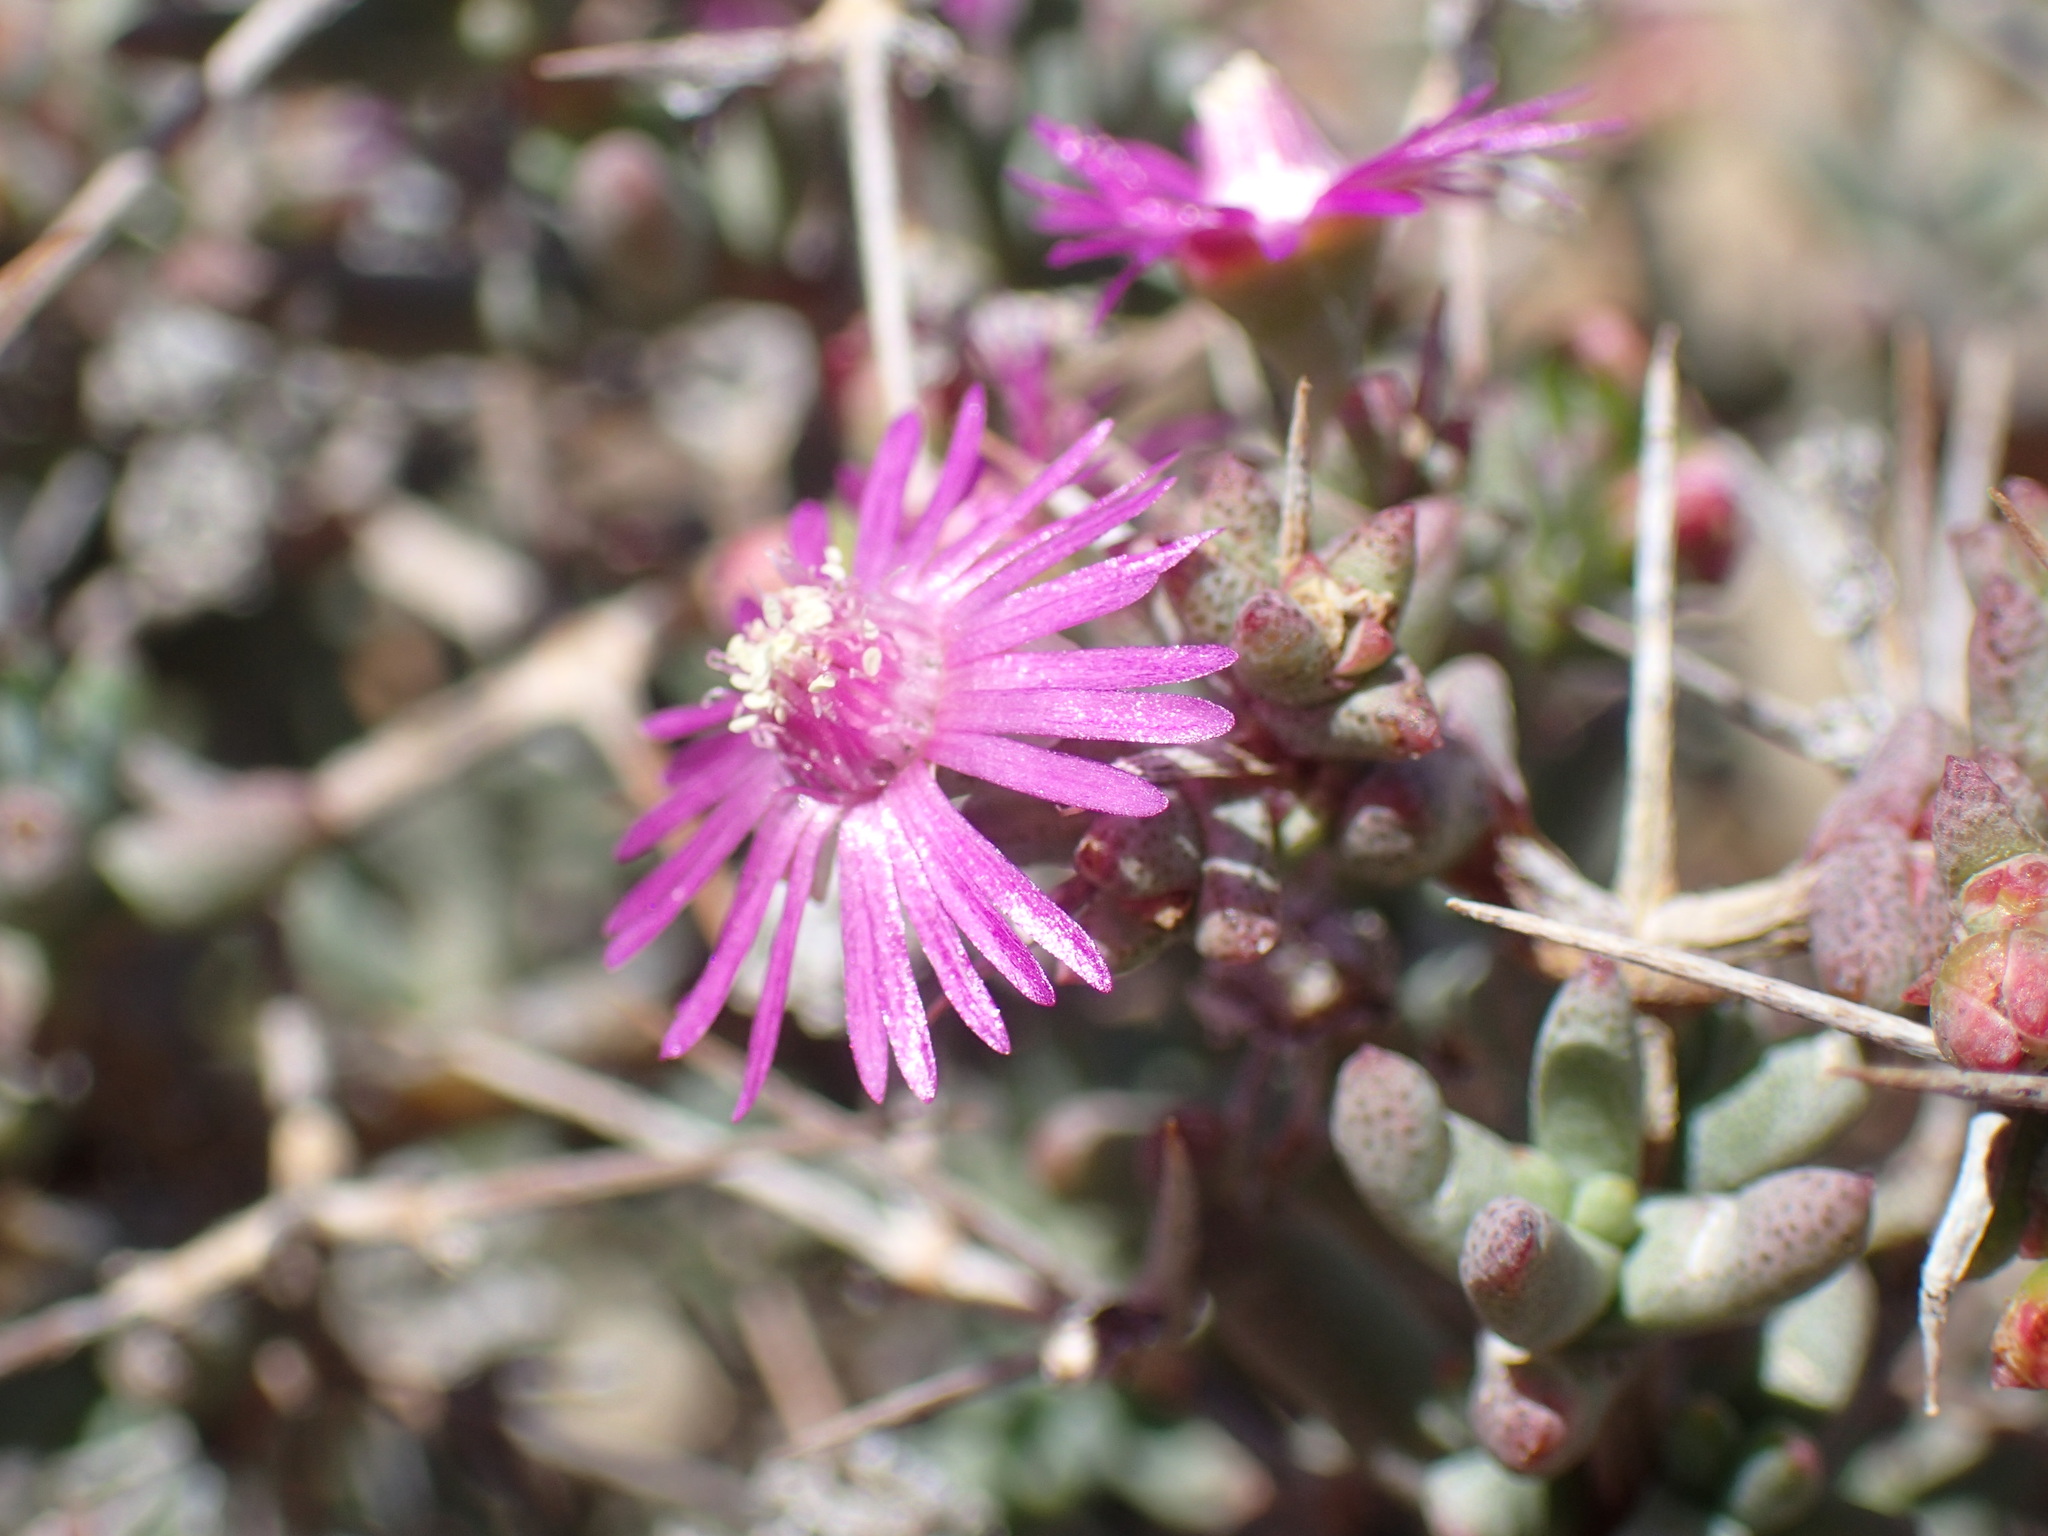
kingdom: Plantae
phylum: Tracheophyta
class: Magnoliopsida
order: Caryophyllales
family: Aizoaceae
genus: Ruschia
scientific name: Ruschia intricata
